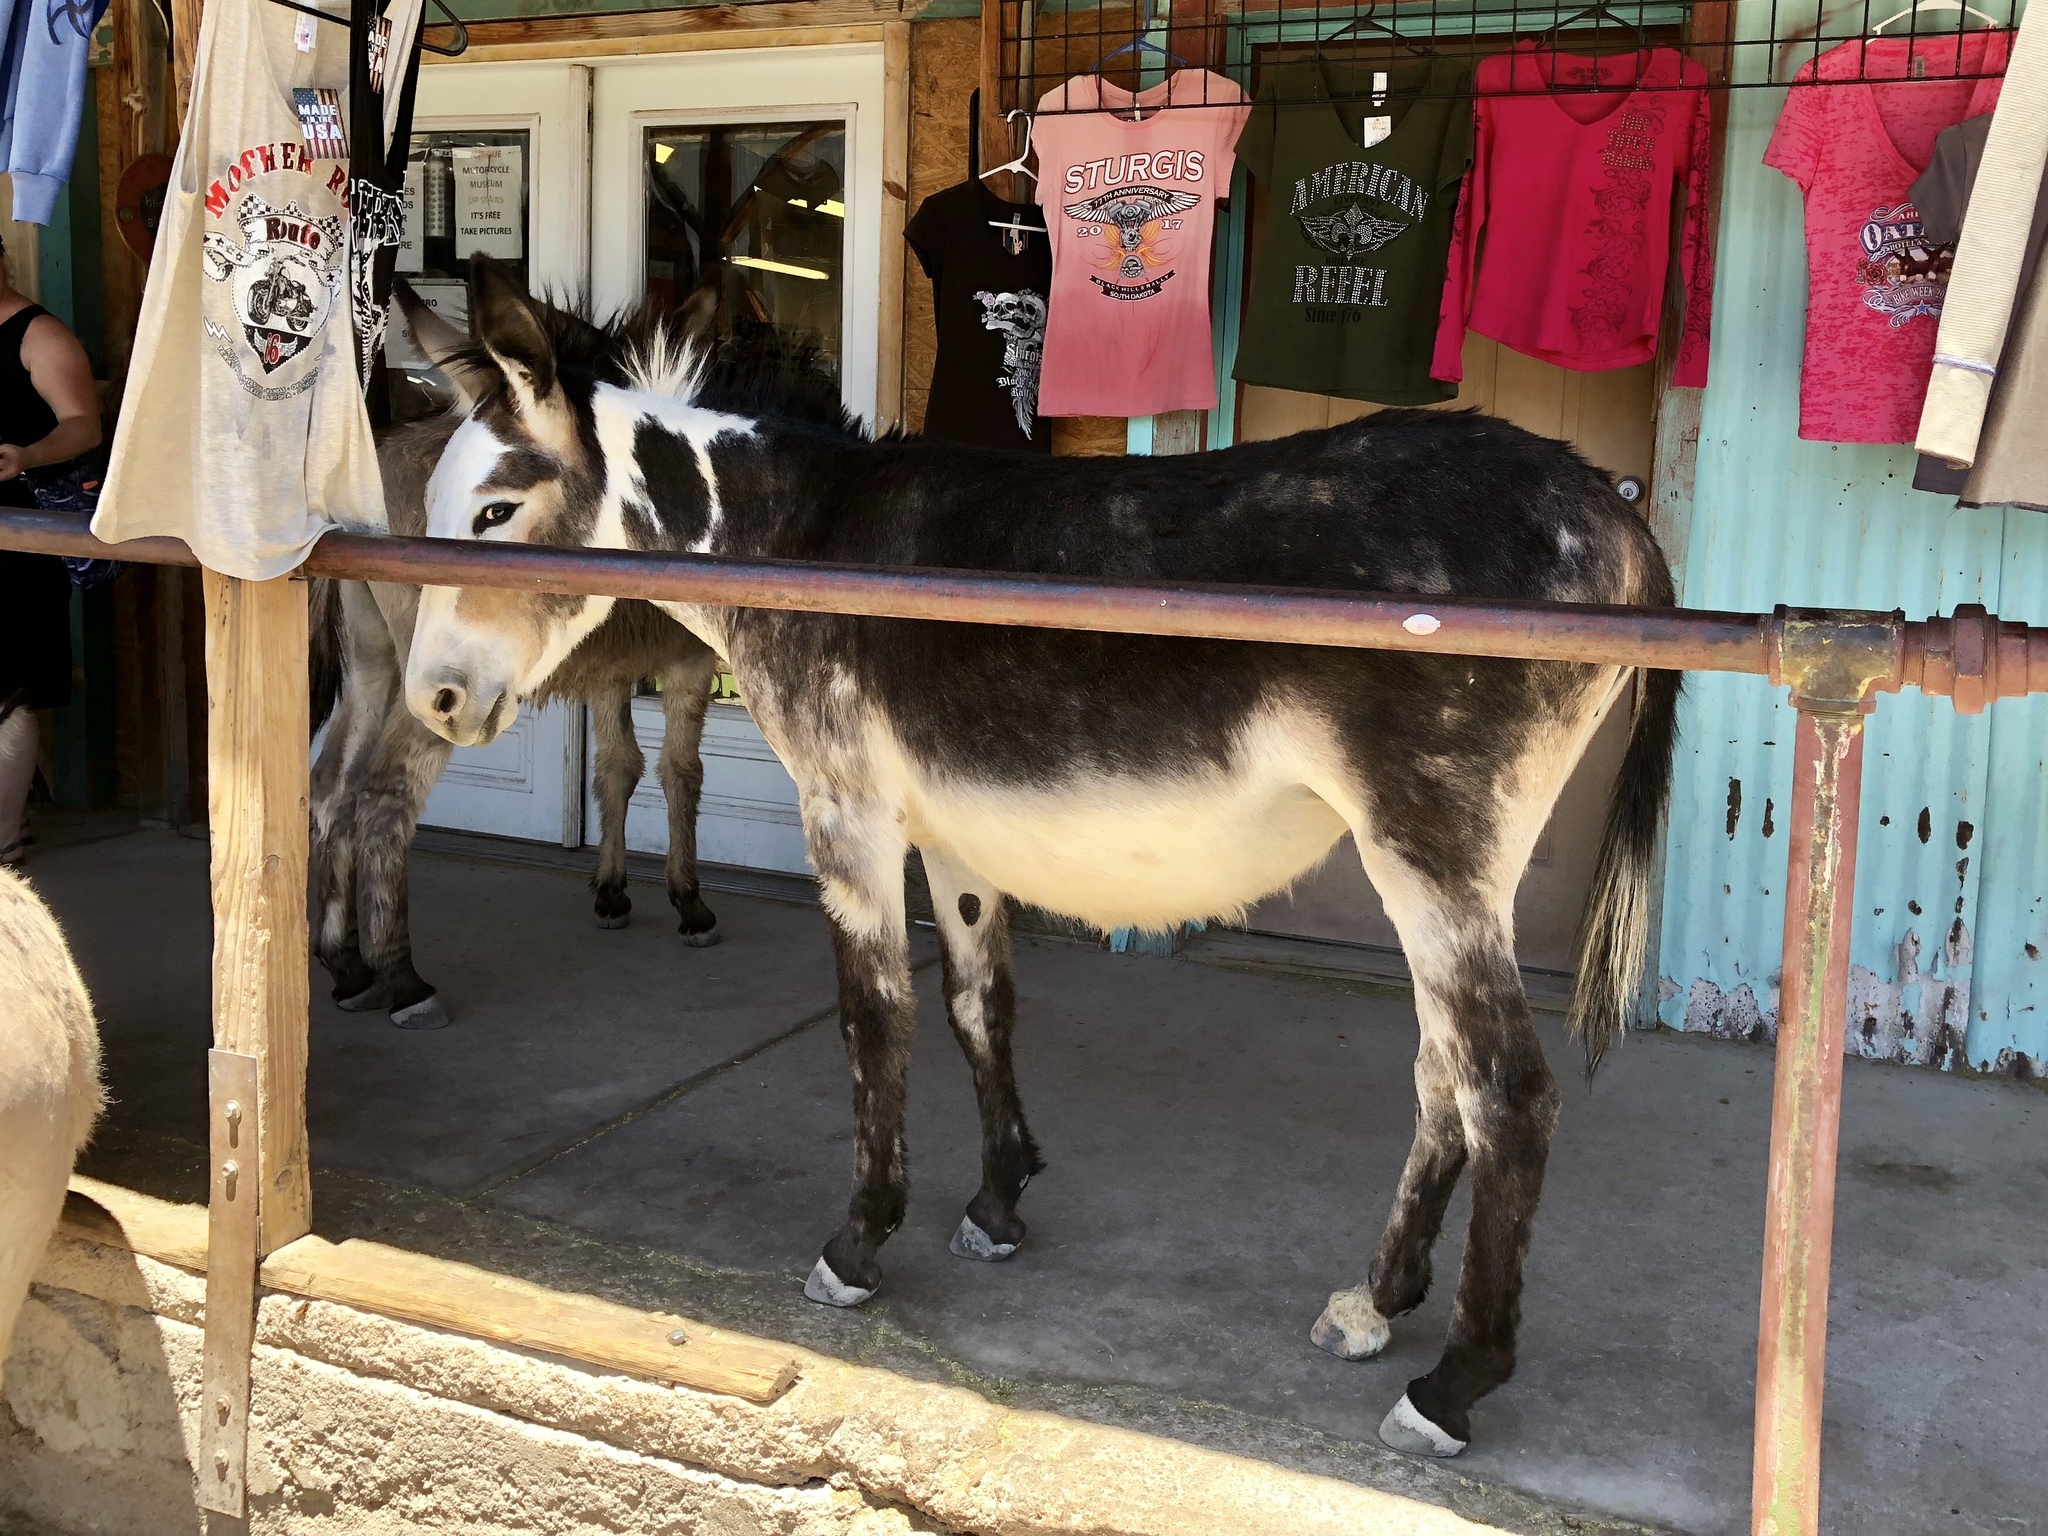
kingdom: Animalia
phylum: Chordata
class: Mammalia
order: Perissodactyla
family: Equidae
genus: Equus
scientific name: Equus asinus
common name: Ass
